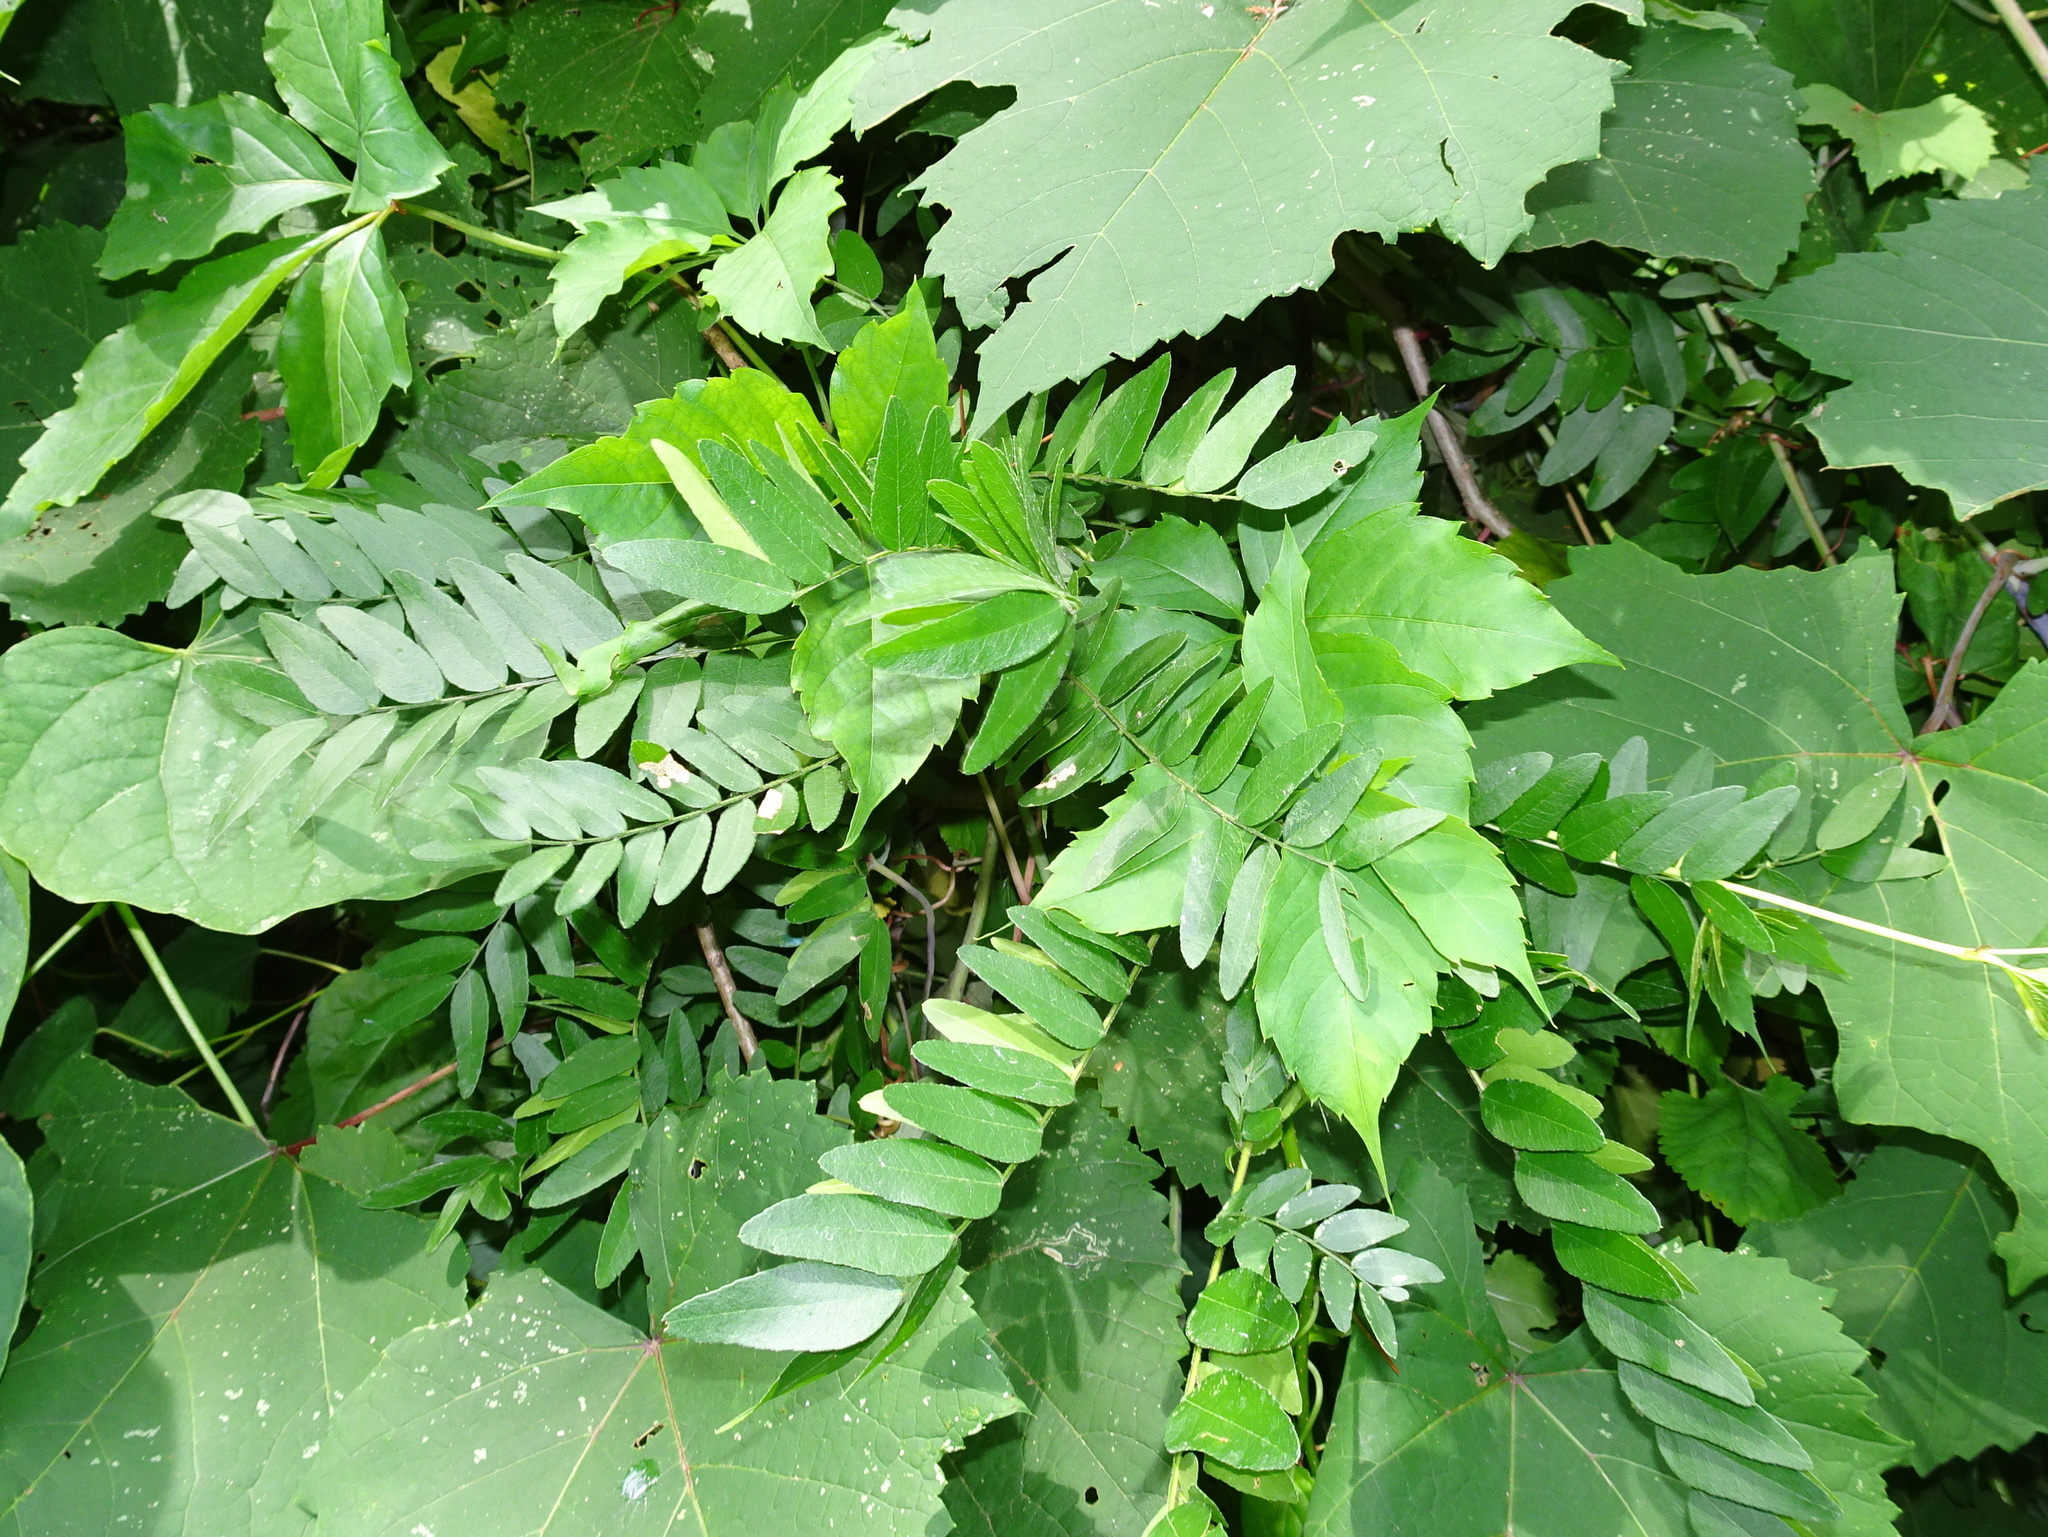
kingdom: Plantae
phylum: Tracheophyta
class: Magnoliopsida
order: Fabales
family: Fabaceae
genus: Gleditsia
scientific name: Gleditsia triacanthos
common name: Common honeylocust
